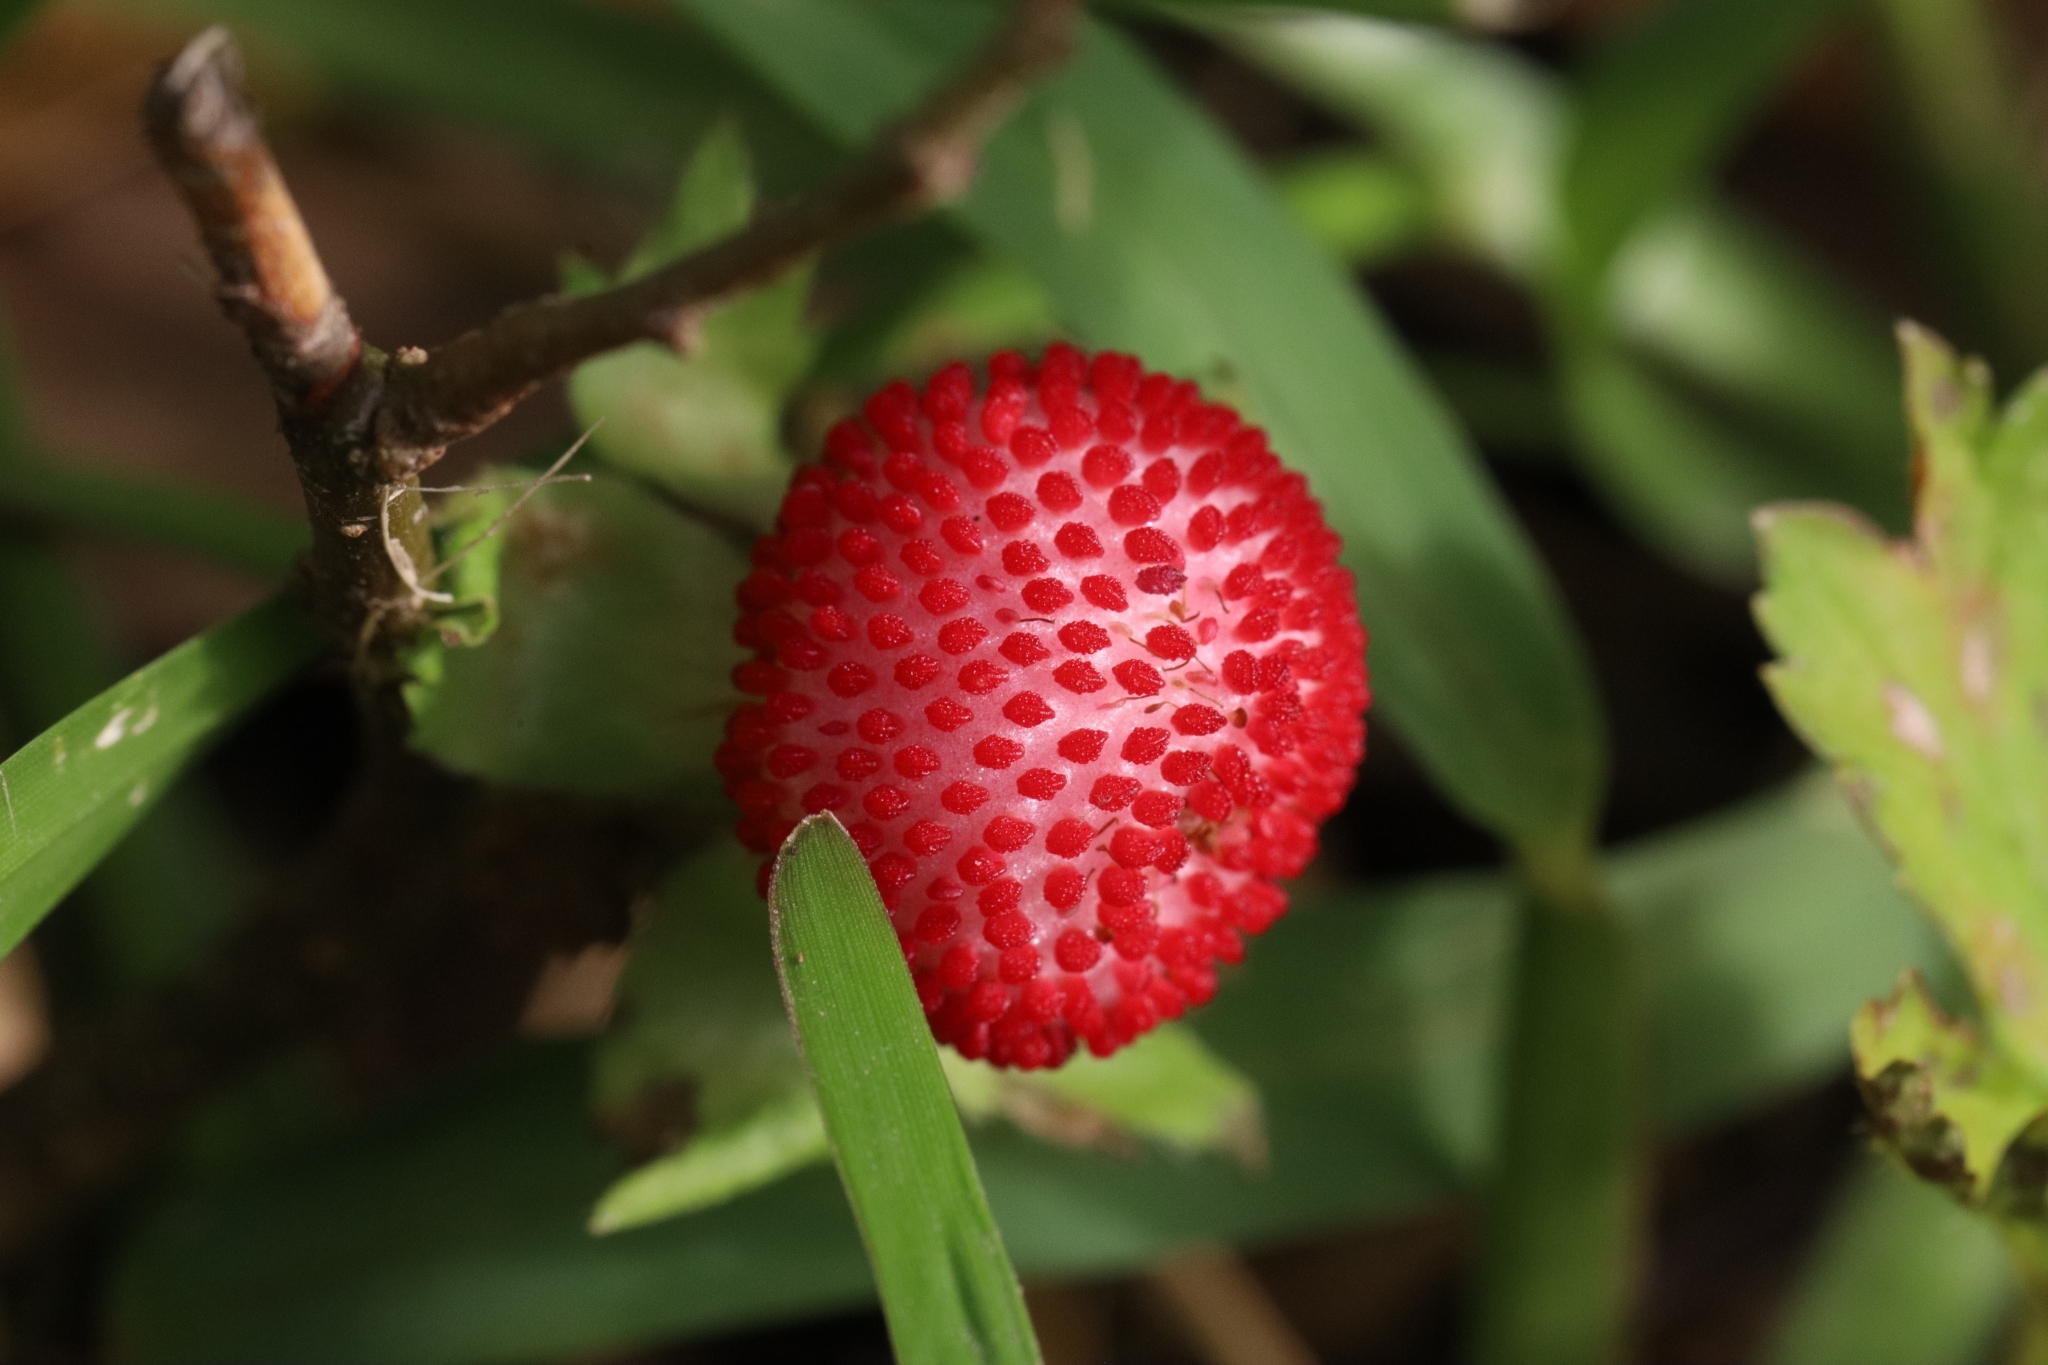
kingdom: Plantae
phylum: Tracheophyta
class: Magnoliopsida
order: Rosales
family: Rosaceae
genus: Potentilla
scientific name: Potentilla indica
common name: Yellow-flowered strawberry
